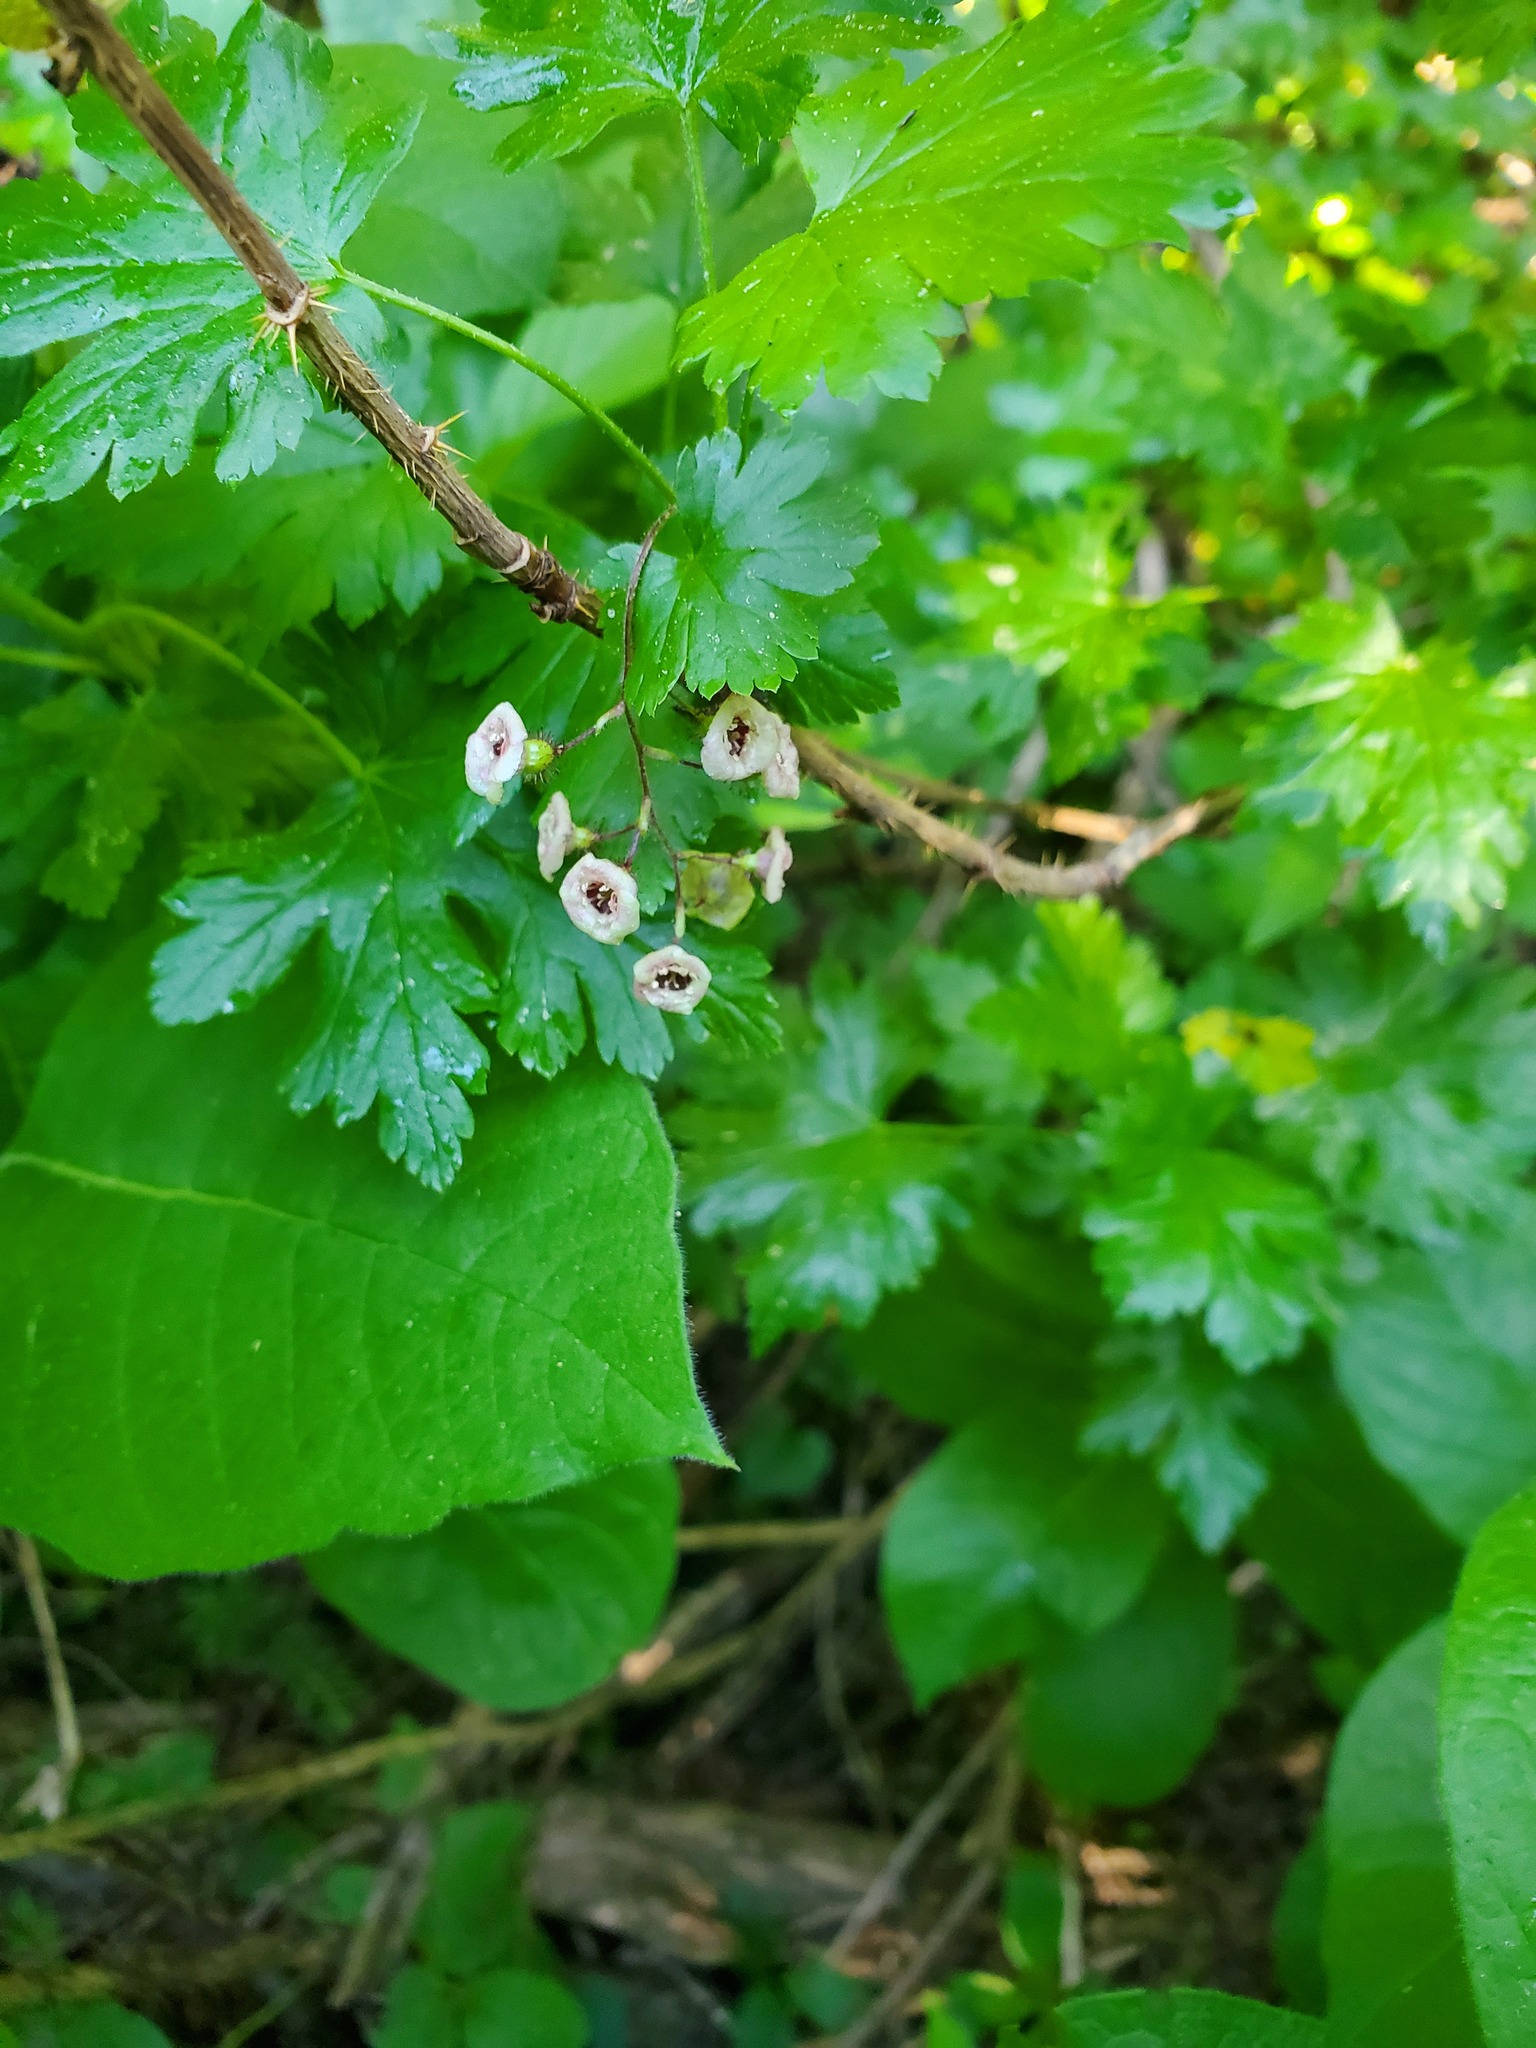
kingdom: Plantae
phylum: Tracheophyta
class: Magnoliopsida
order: Saxifragales
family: Grossulariaceae
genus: Ribes
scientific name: Ribes lacustre
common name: Black gooseberry
